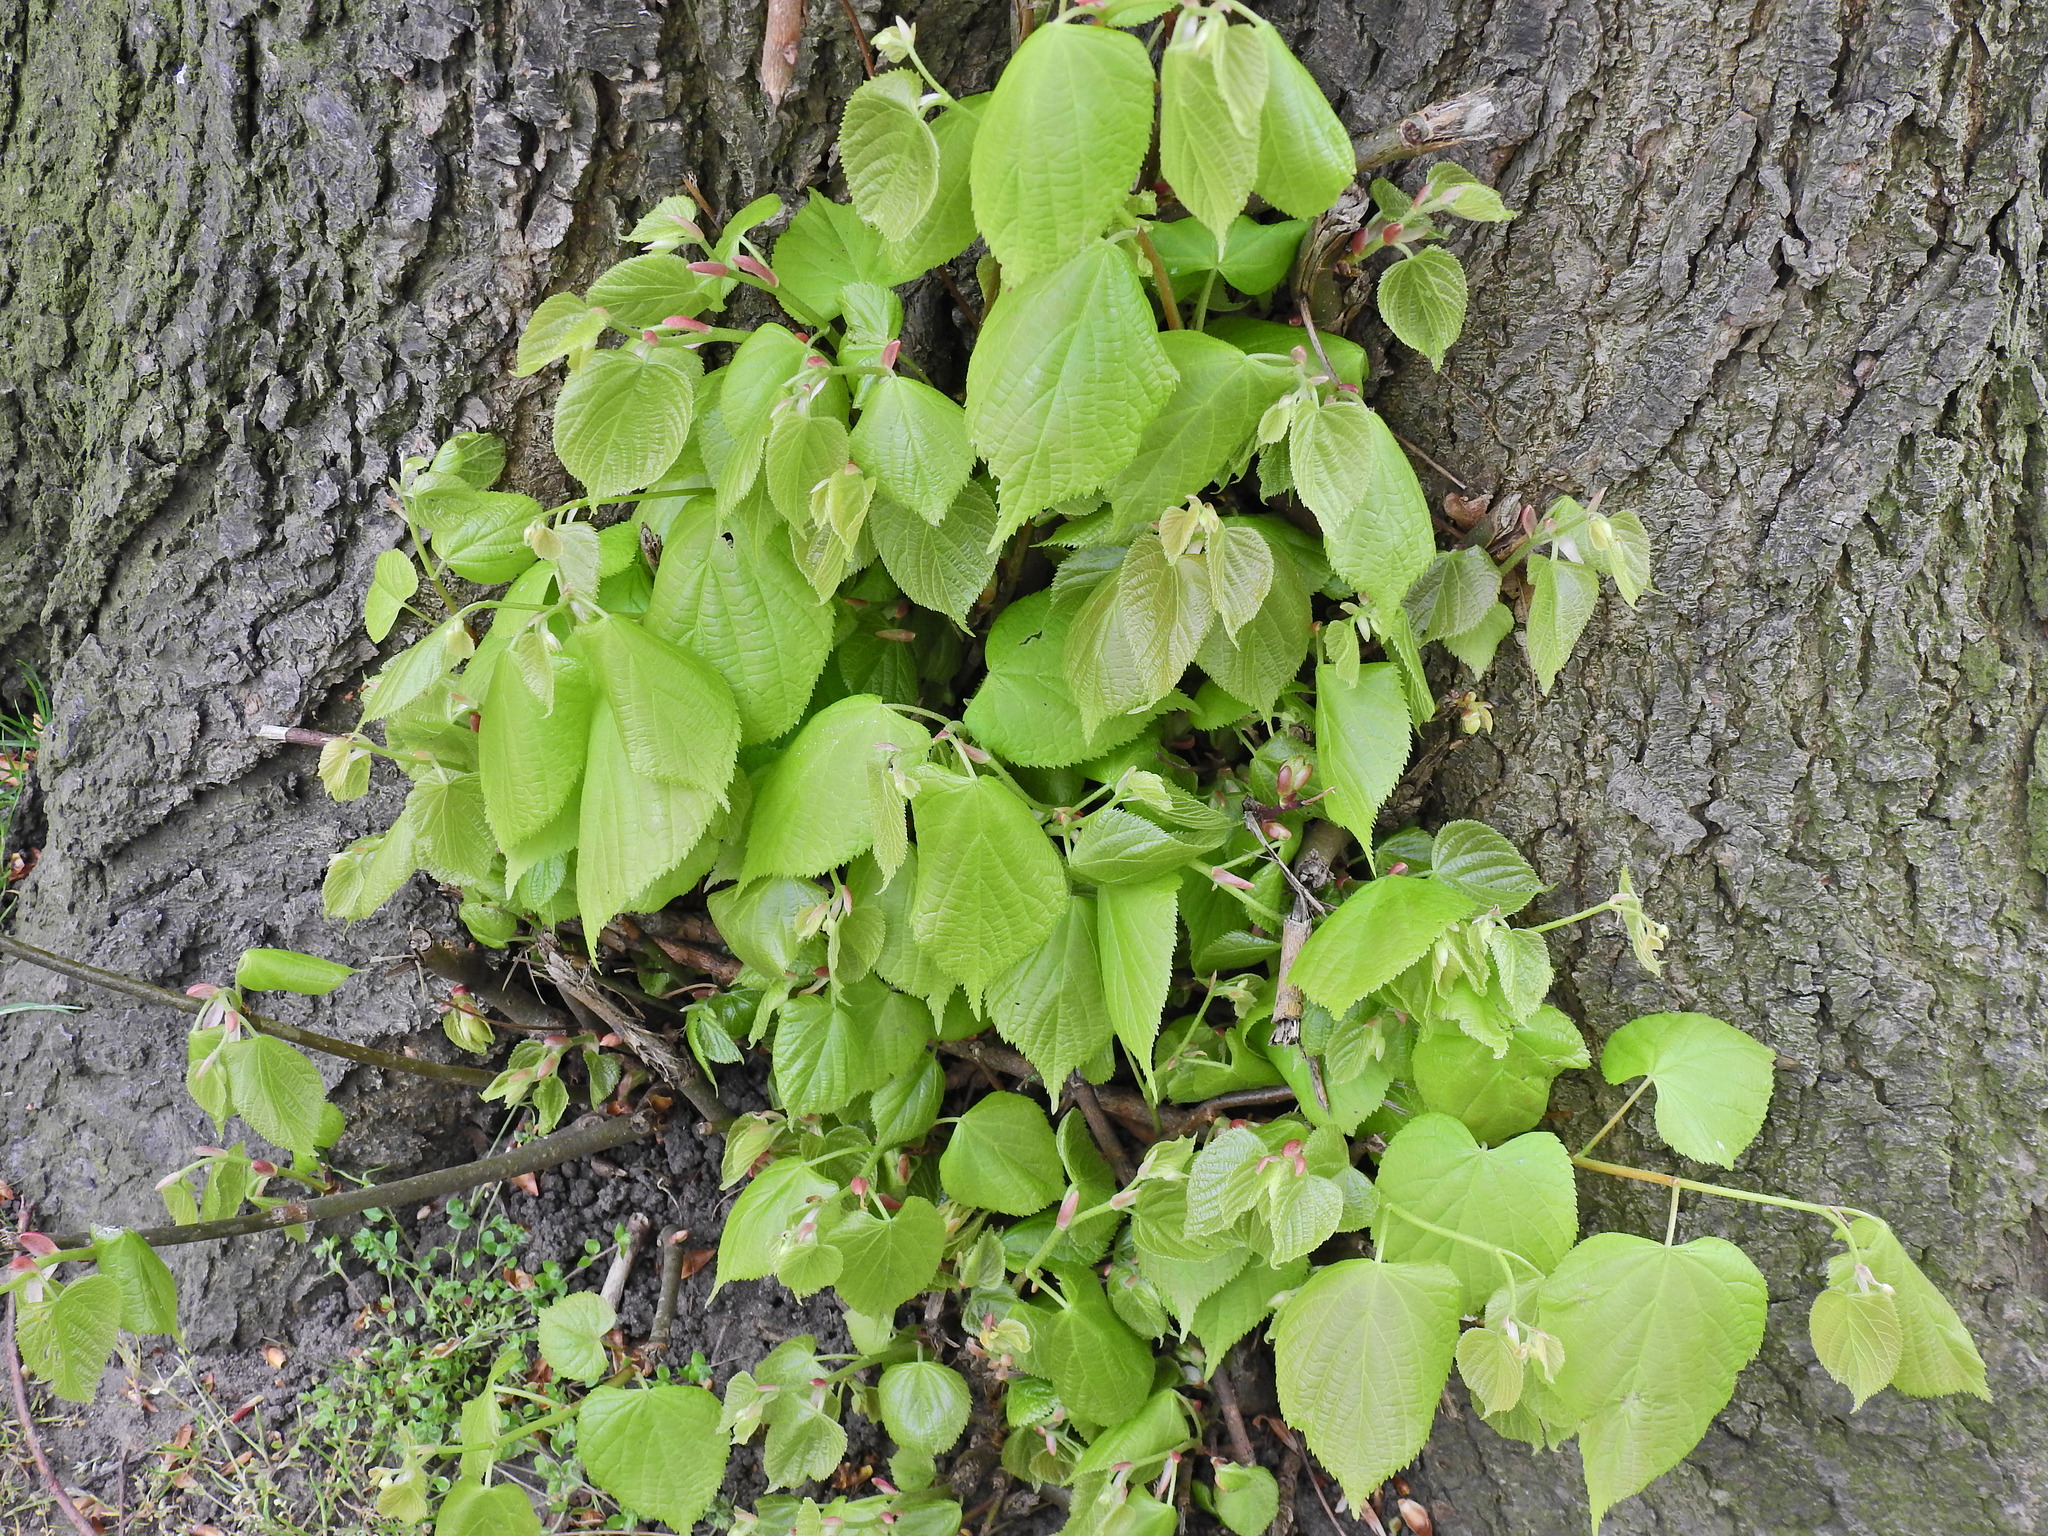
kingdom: Plantae
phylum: Tracheophyta
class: Magnoliopsida
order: Malvales
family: Malvaceae
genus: Tilia
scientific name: Tilia europaea
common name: European linden
